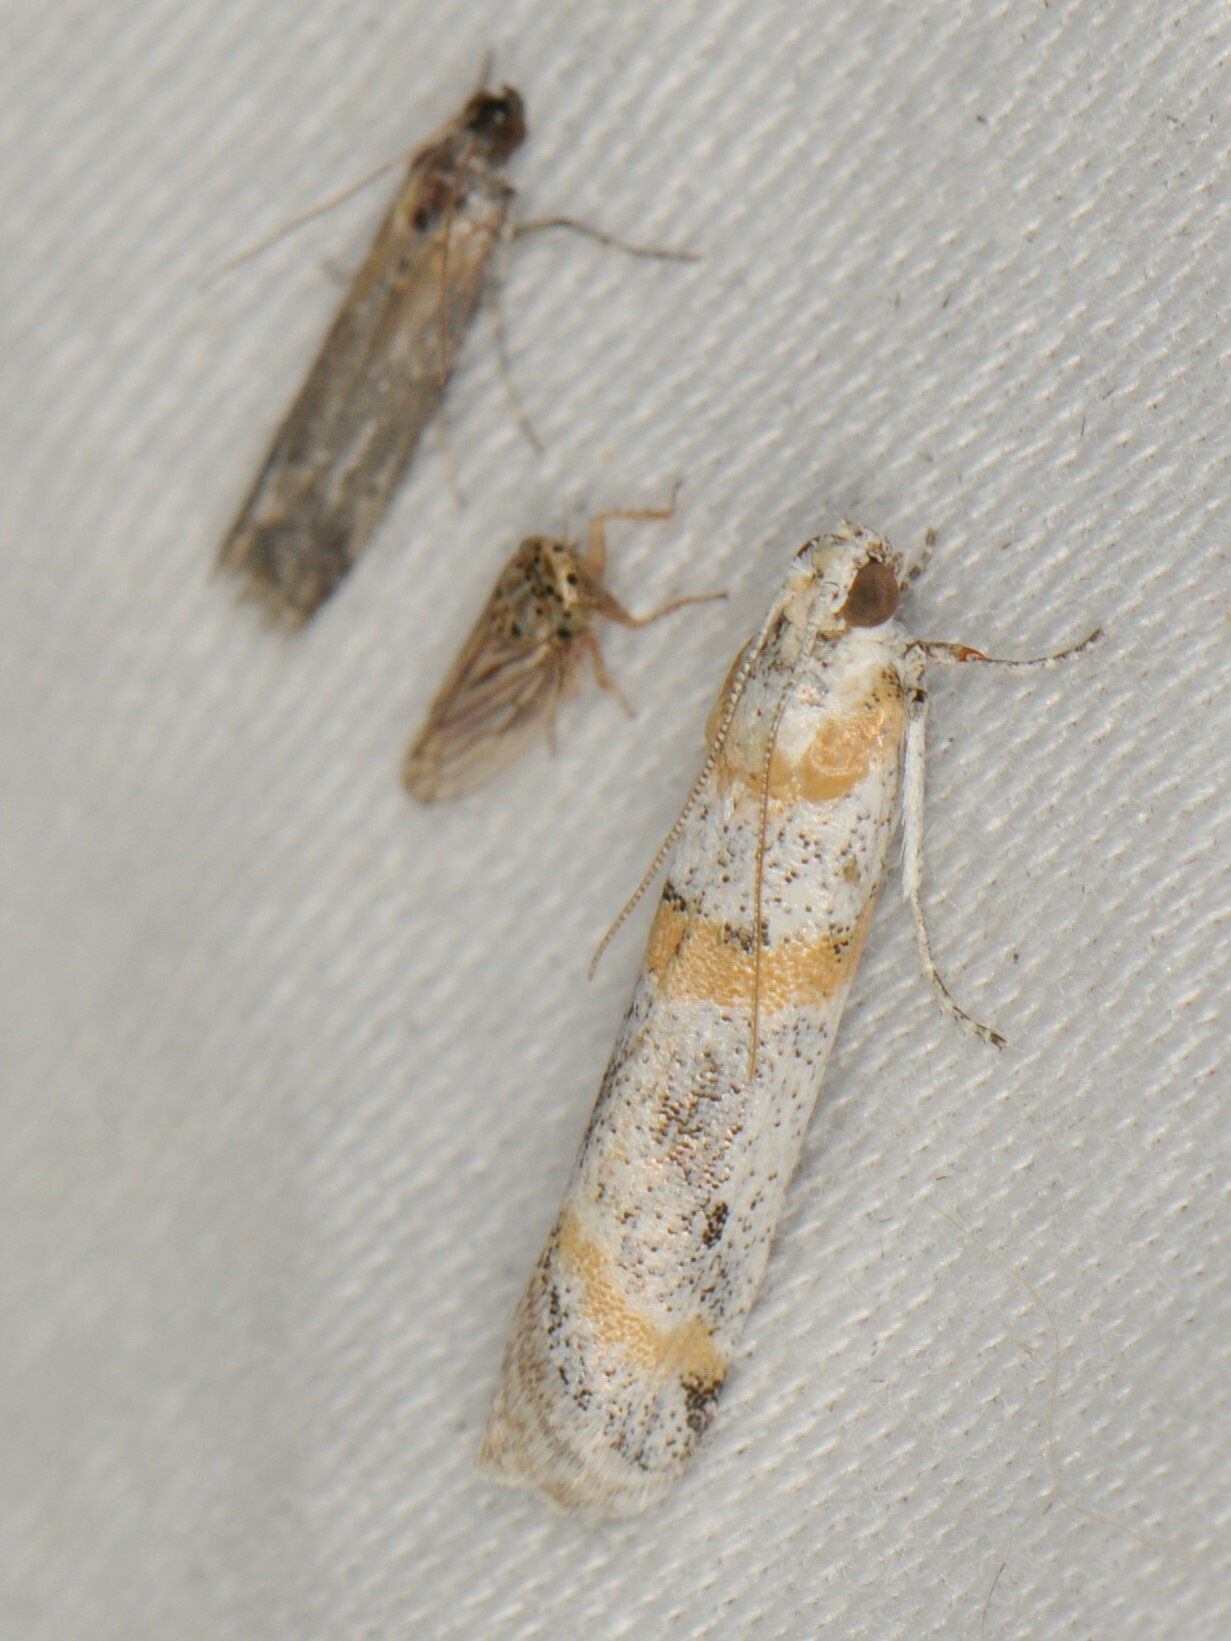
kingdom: Animalia
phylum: Arthropoda
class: Insecta
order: Lepidoptera
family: Pyralidae
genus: Acroncosa
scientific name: Acroncosa albiflavella
